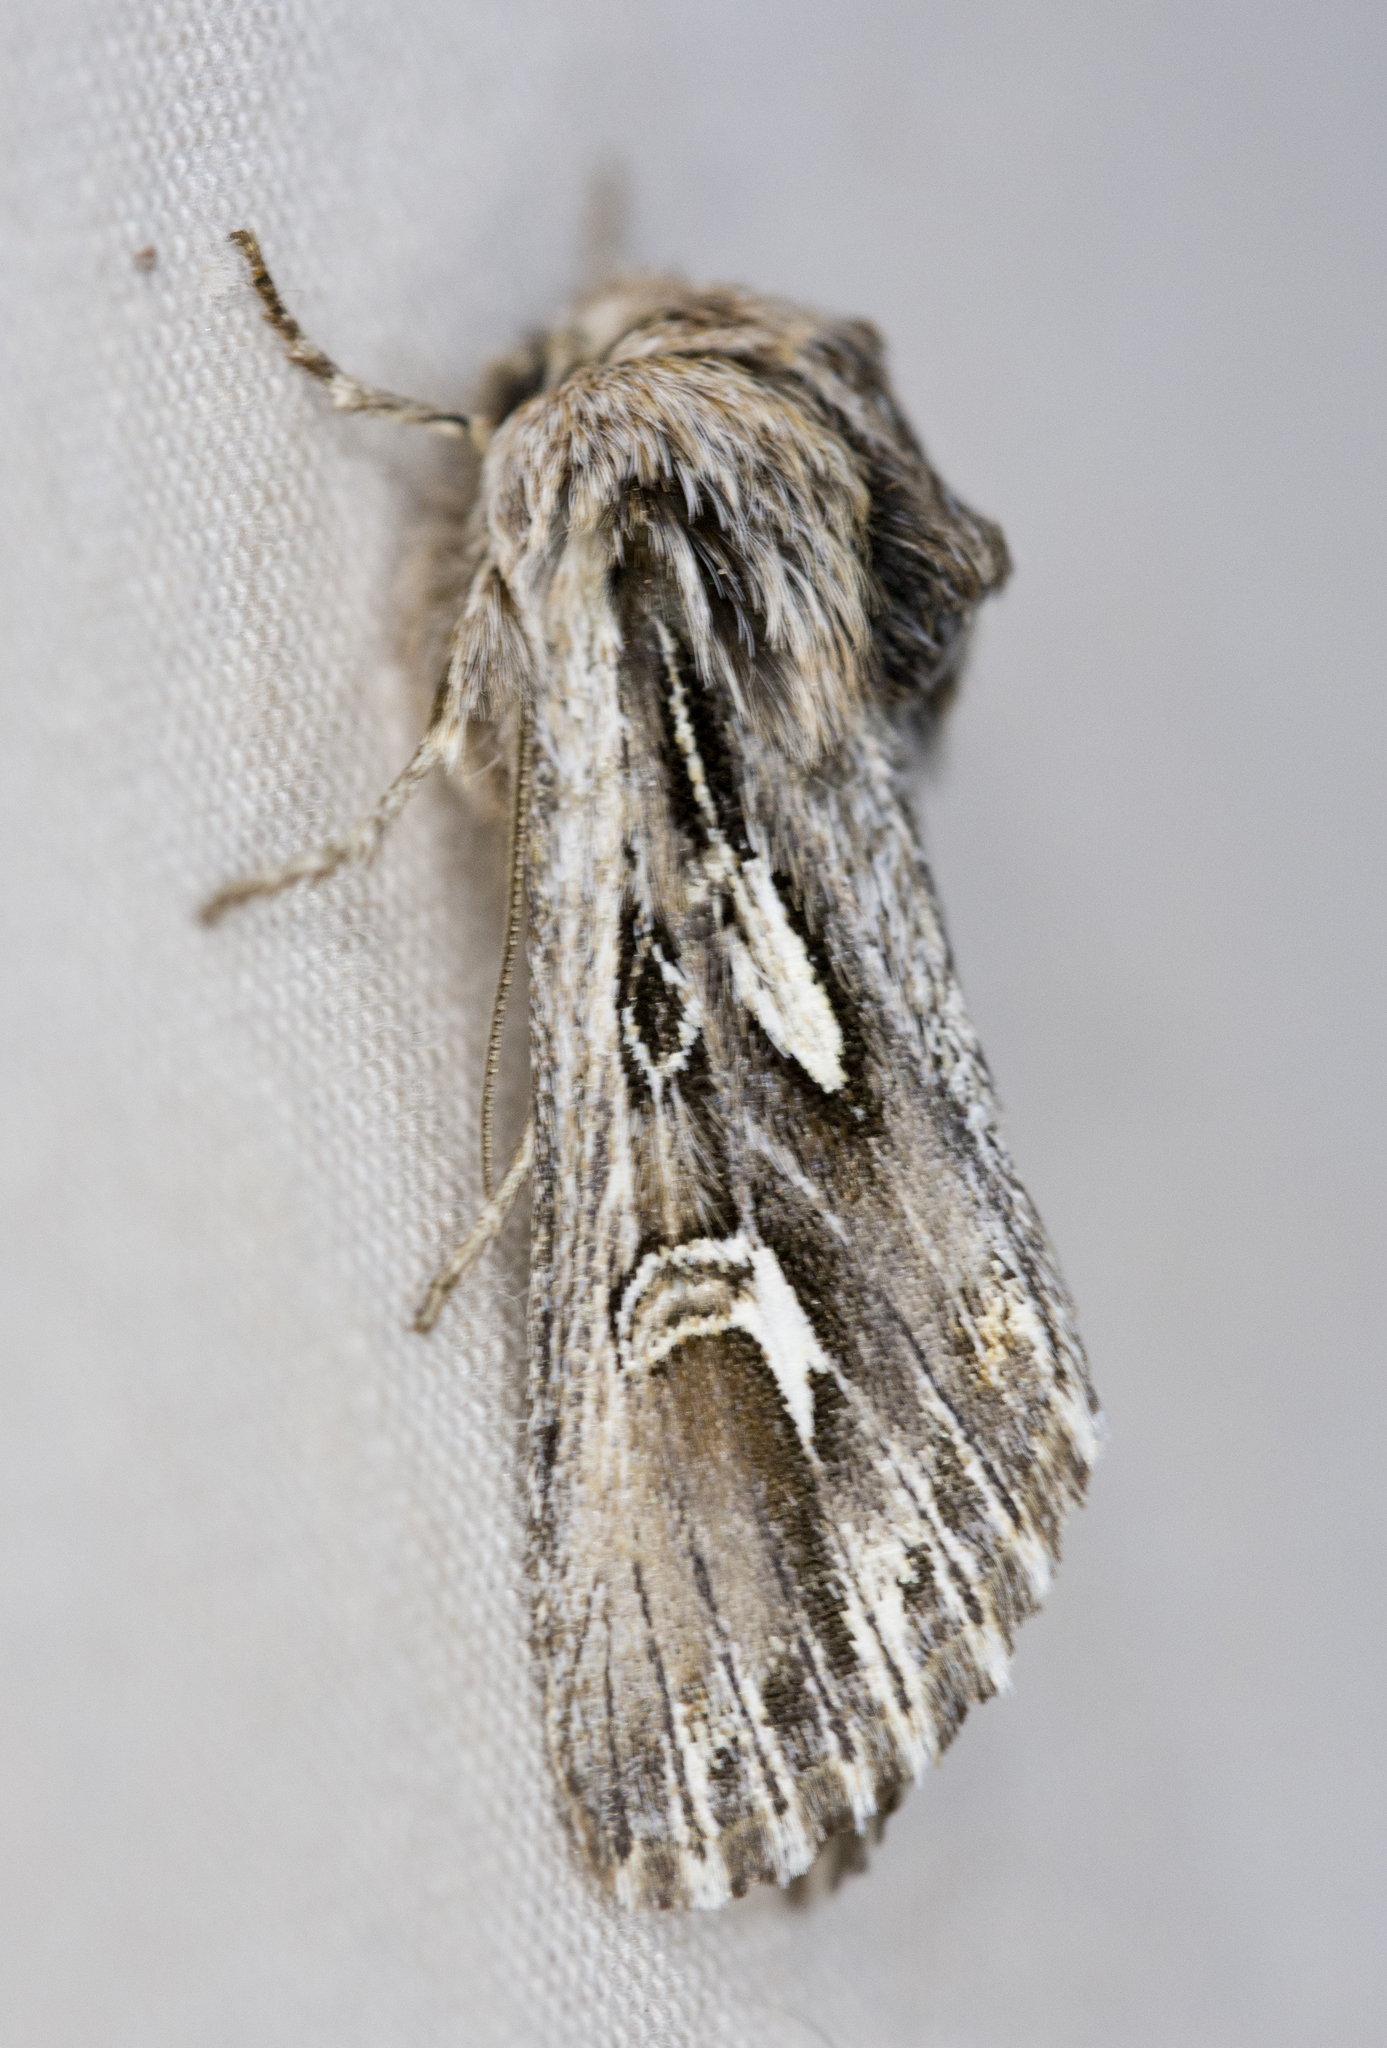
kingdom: Animalia
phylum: Arthropoda
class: Insecta
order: Lepidoptera
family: Noctuidae
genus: Provia
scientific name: Provia argentata
